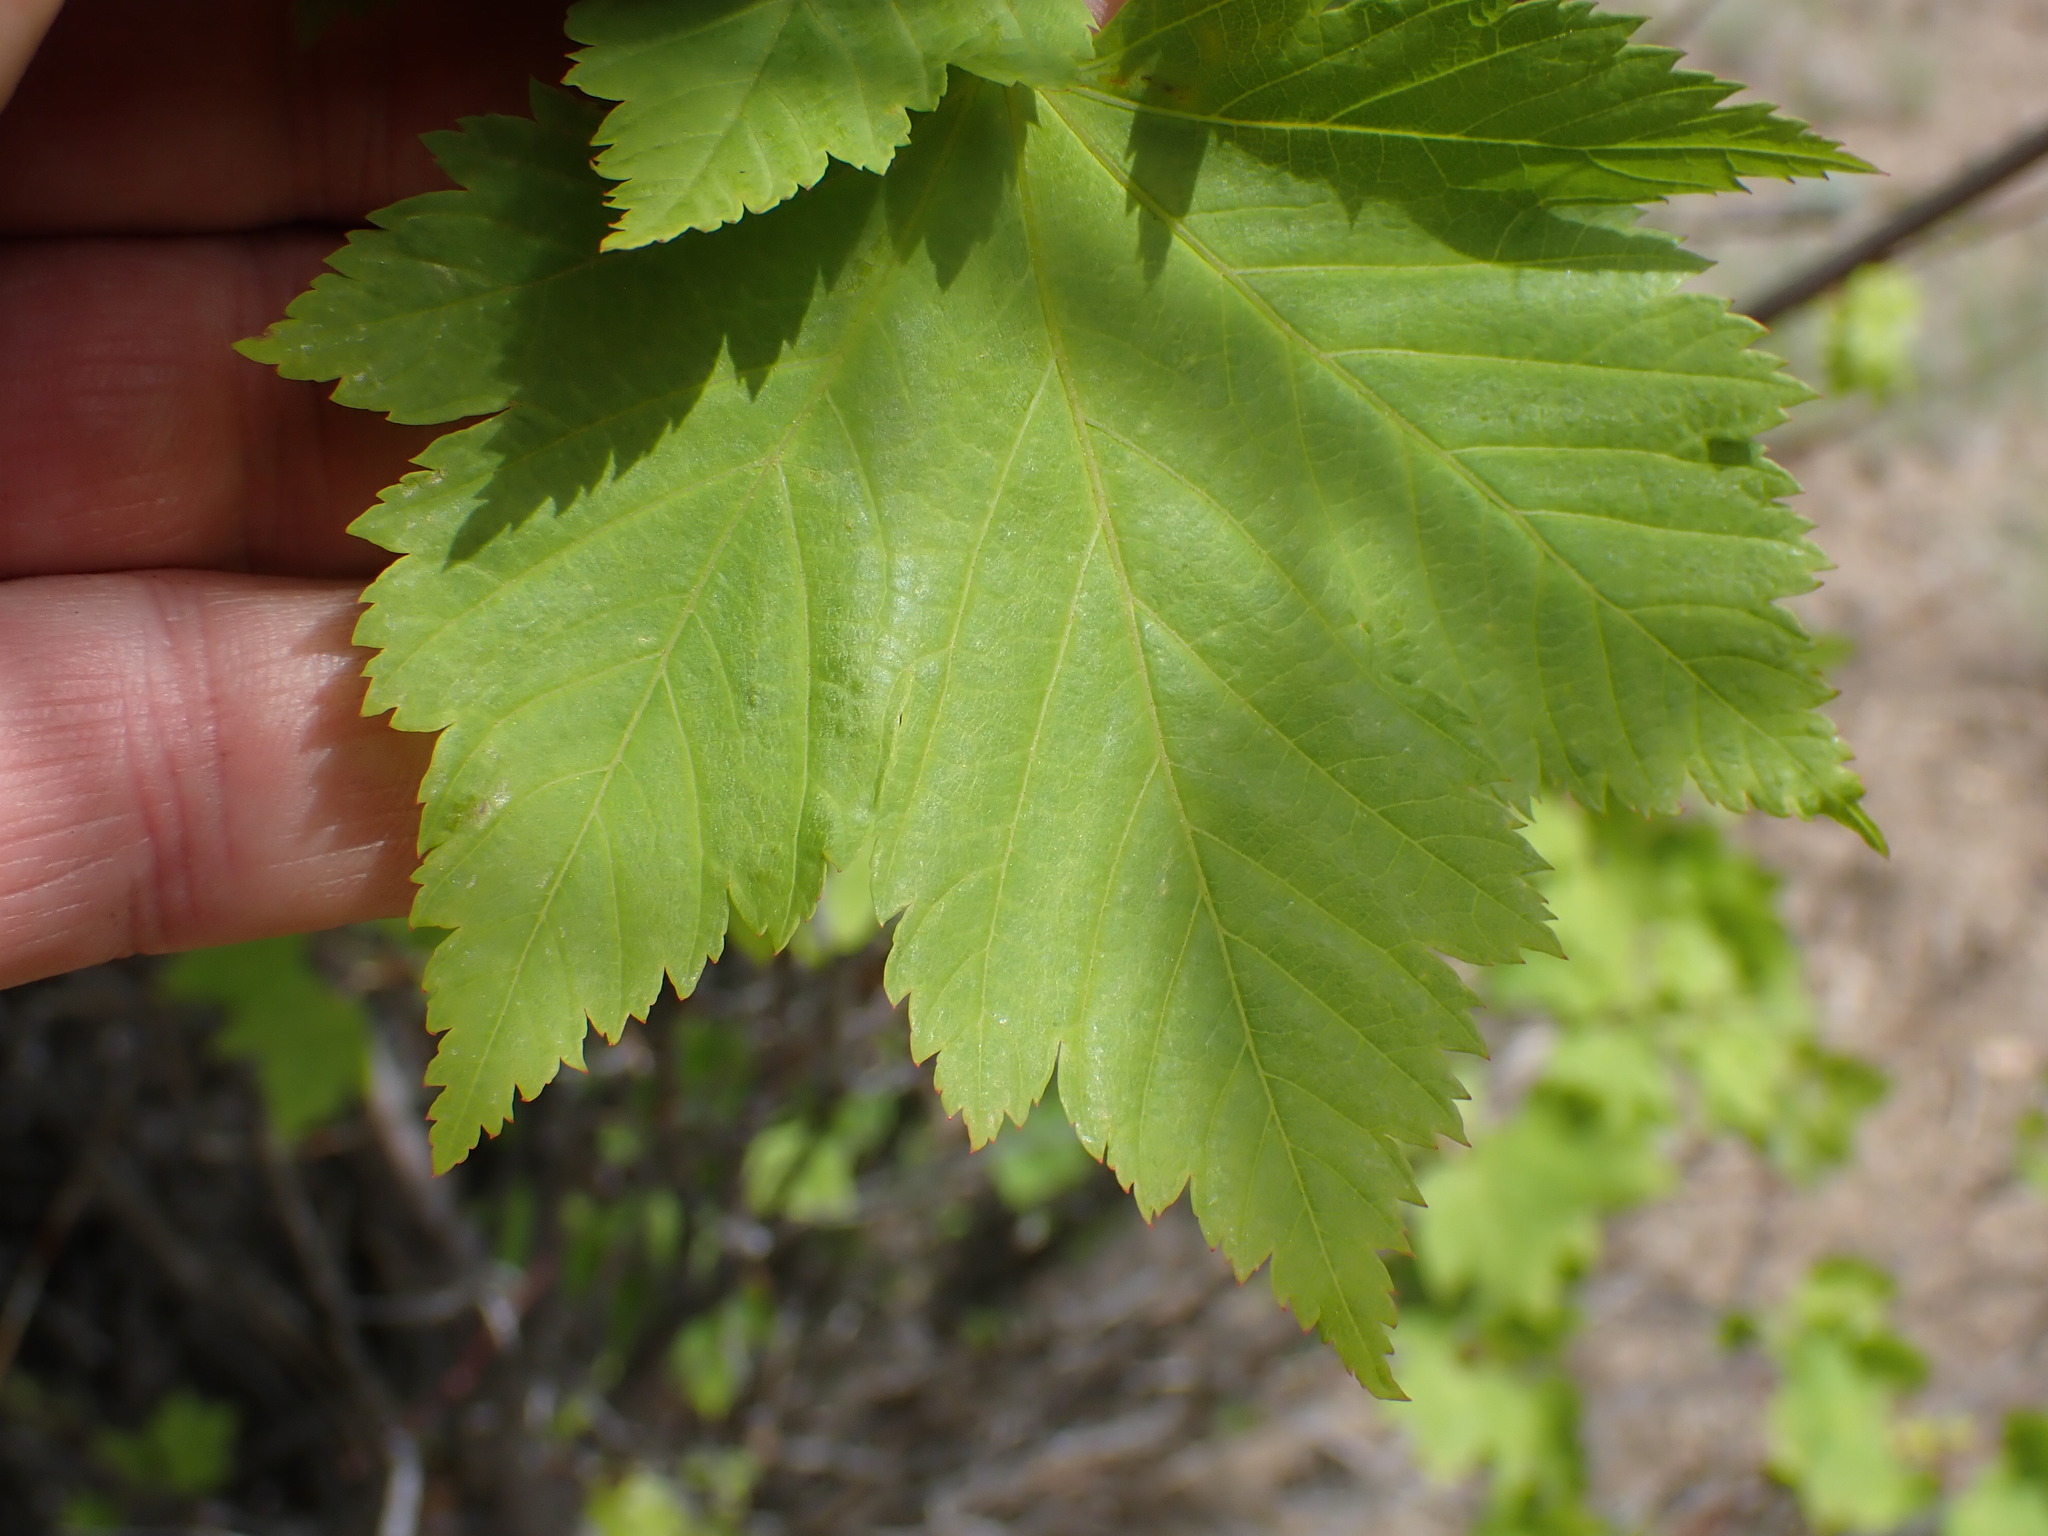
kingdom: Plantae
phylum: Tracheophyta
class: Magnoliopsida
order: Sapindales
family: Sapindaceae
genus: Acer
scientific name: Acer glabrum
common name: Rocky mountain maple
